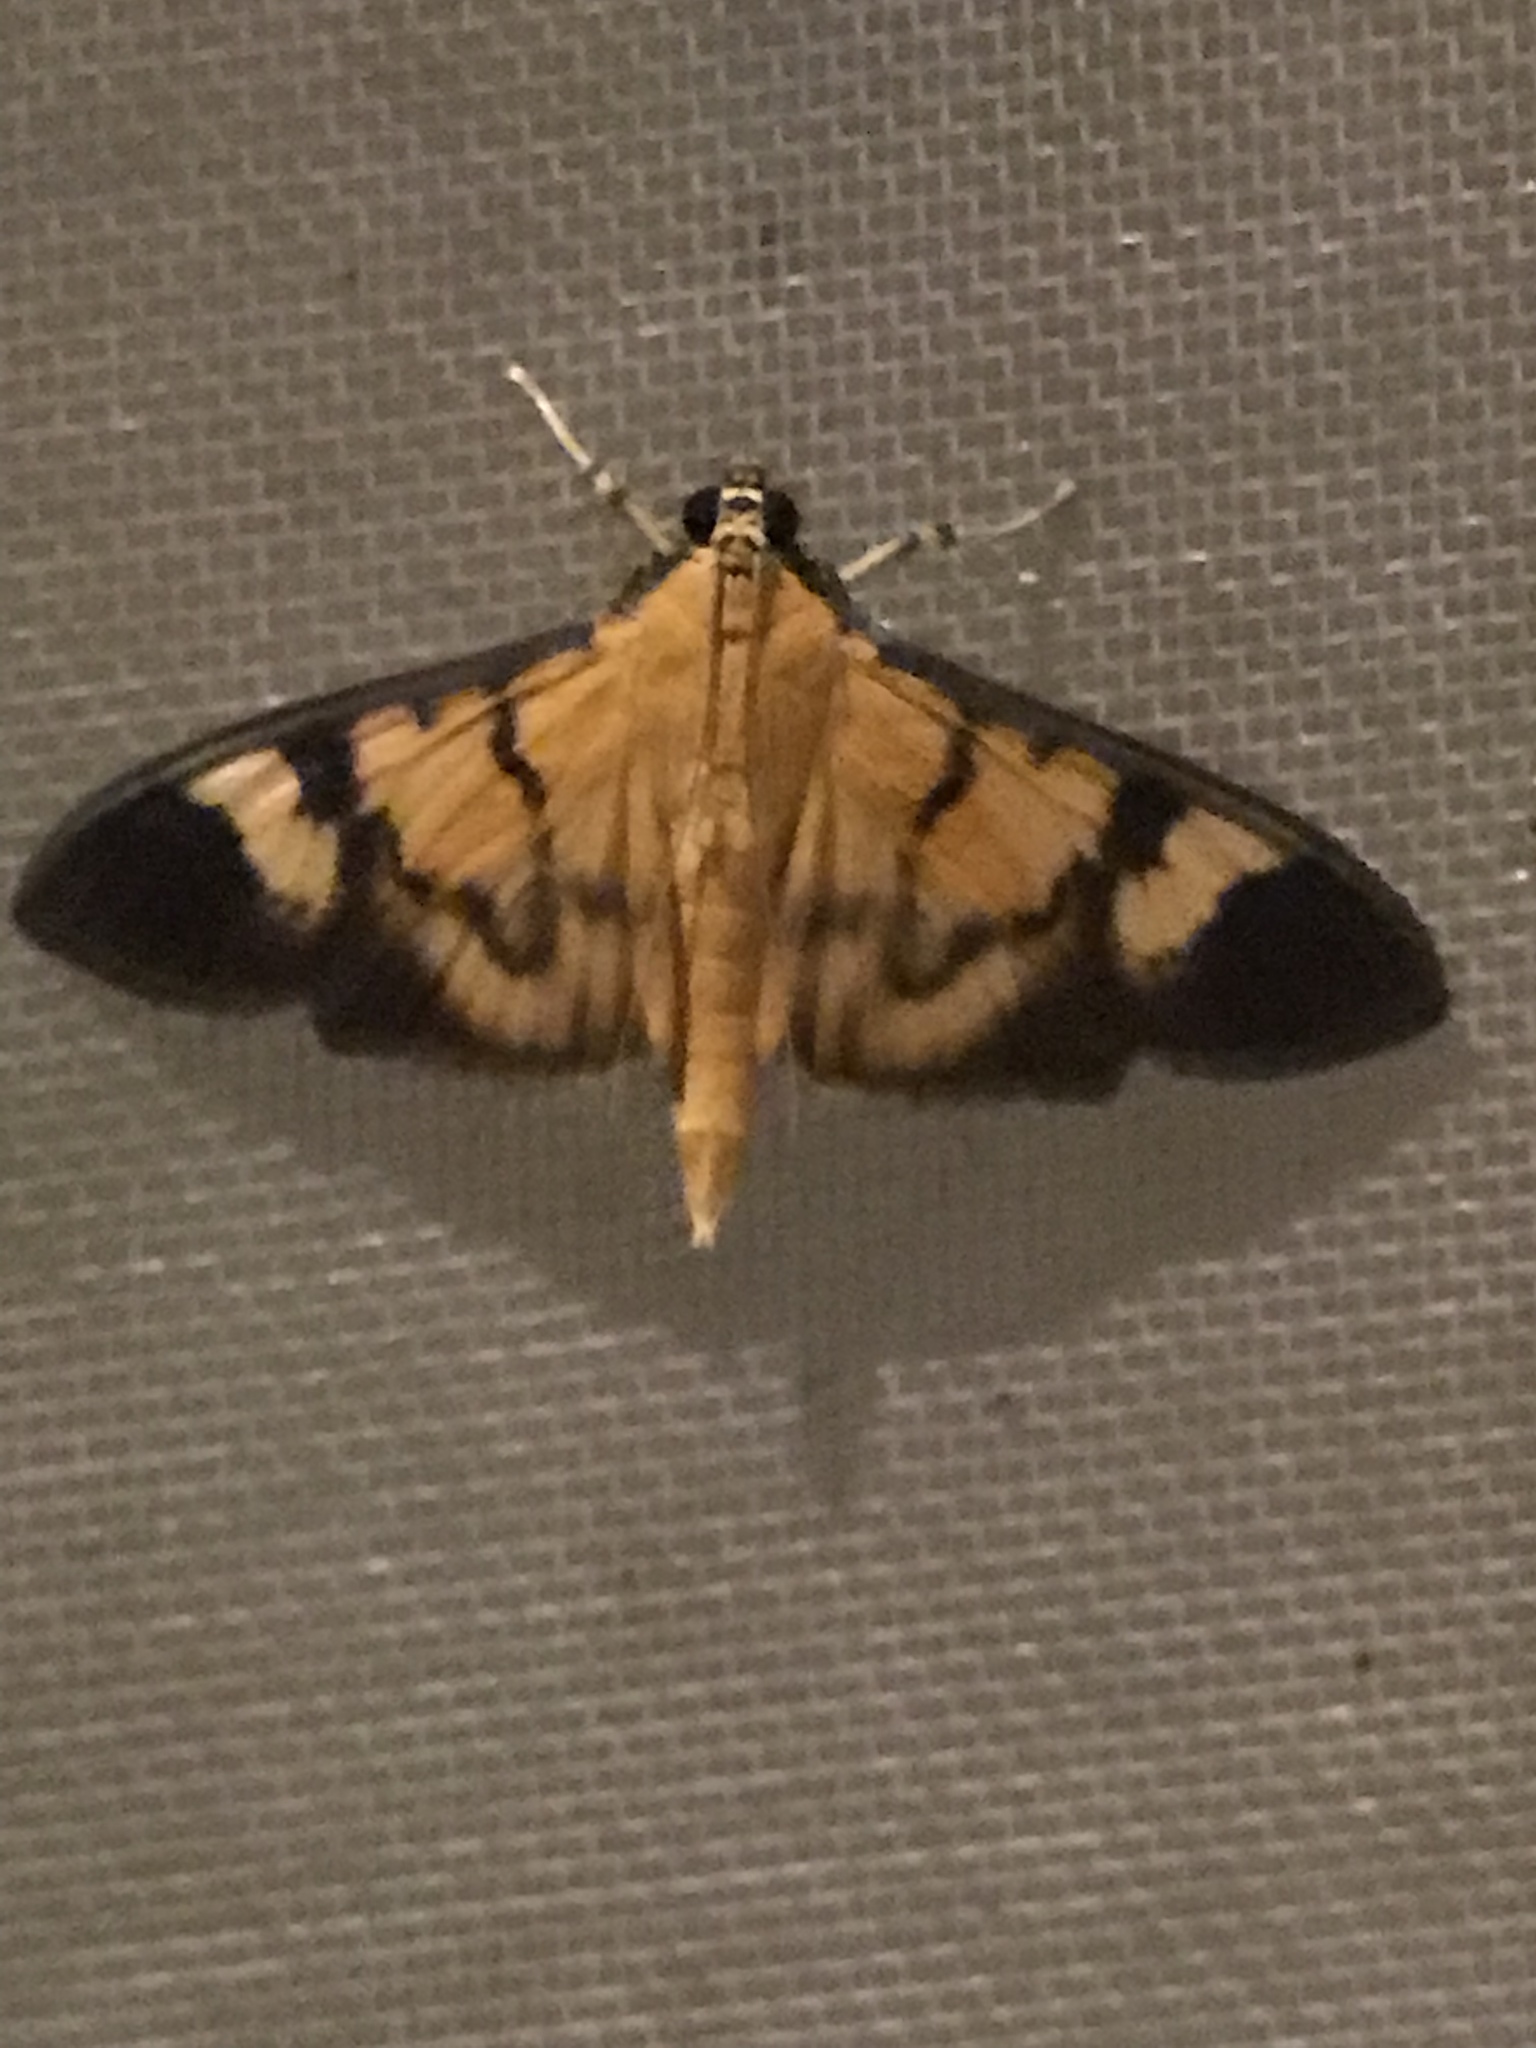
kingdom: Animalia
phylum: Arthropoda
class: Insecta
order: Lepidoptera
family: Crambidae
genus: Phostria
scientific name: Phostria dohrni
